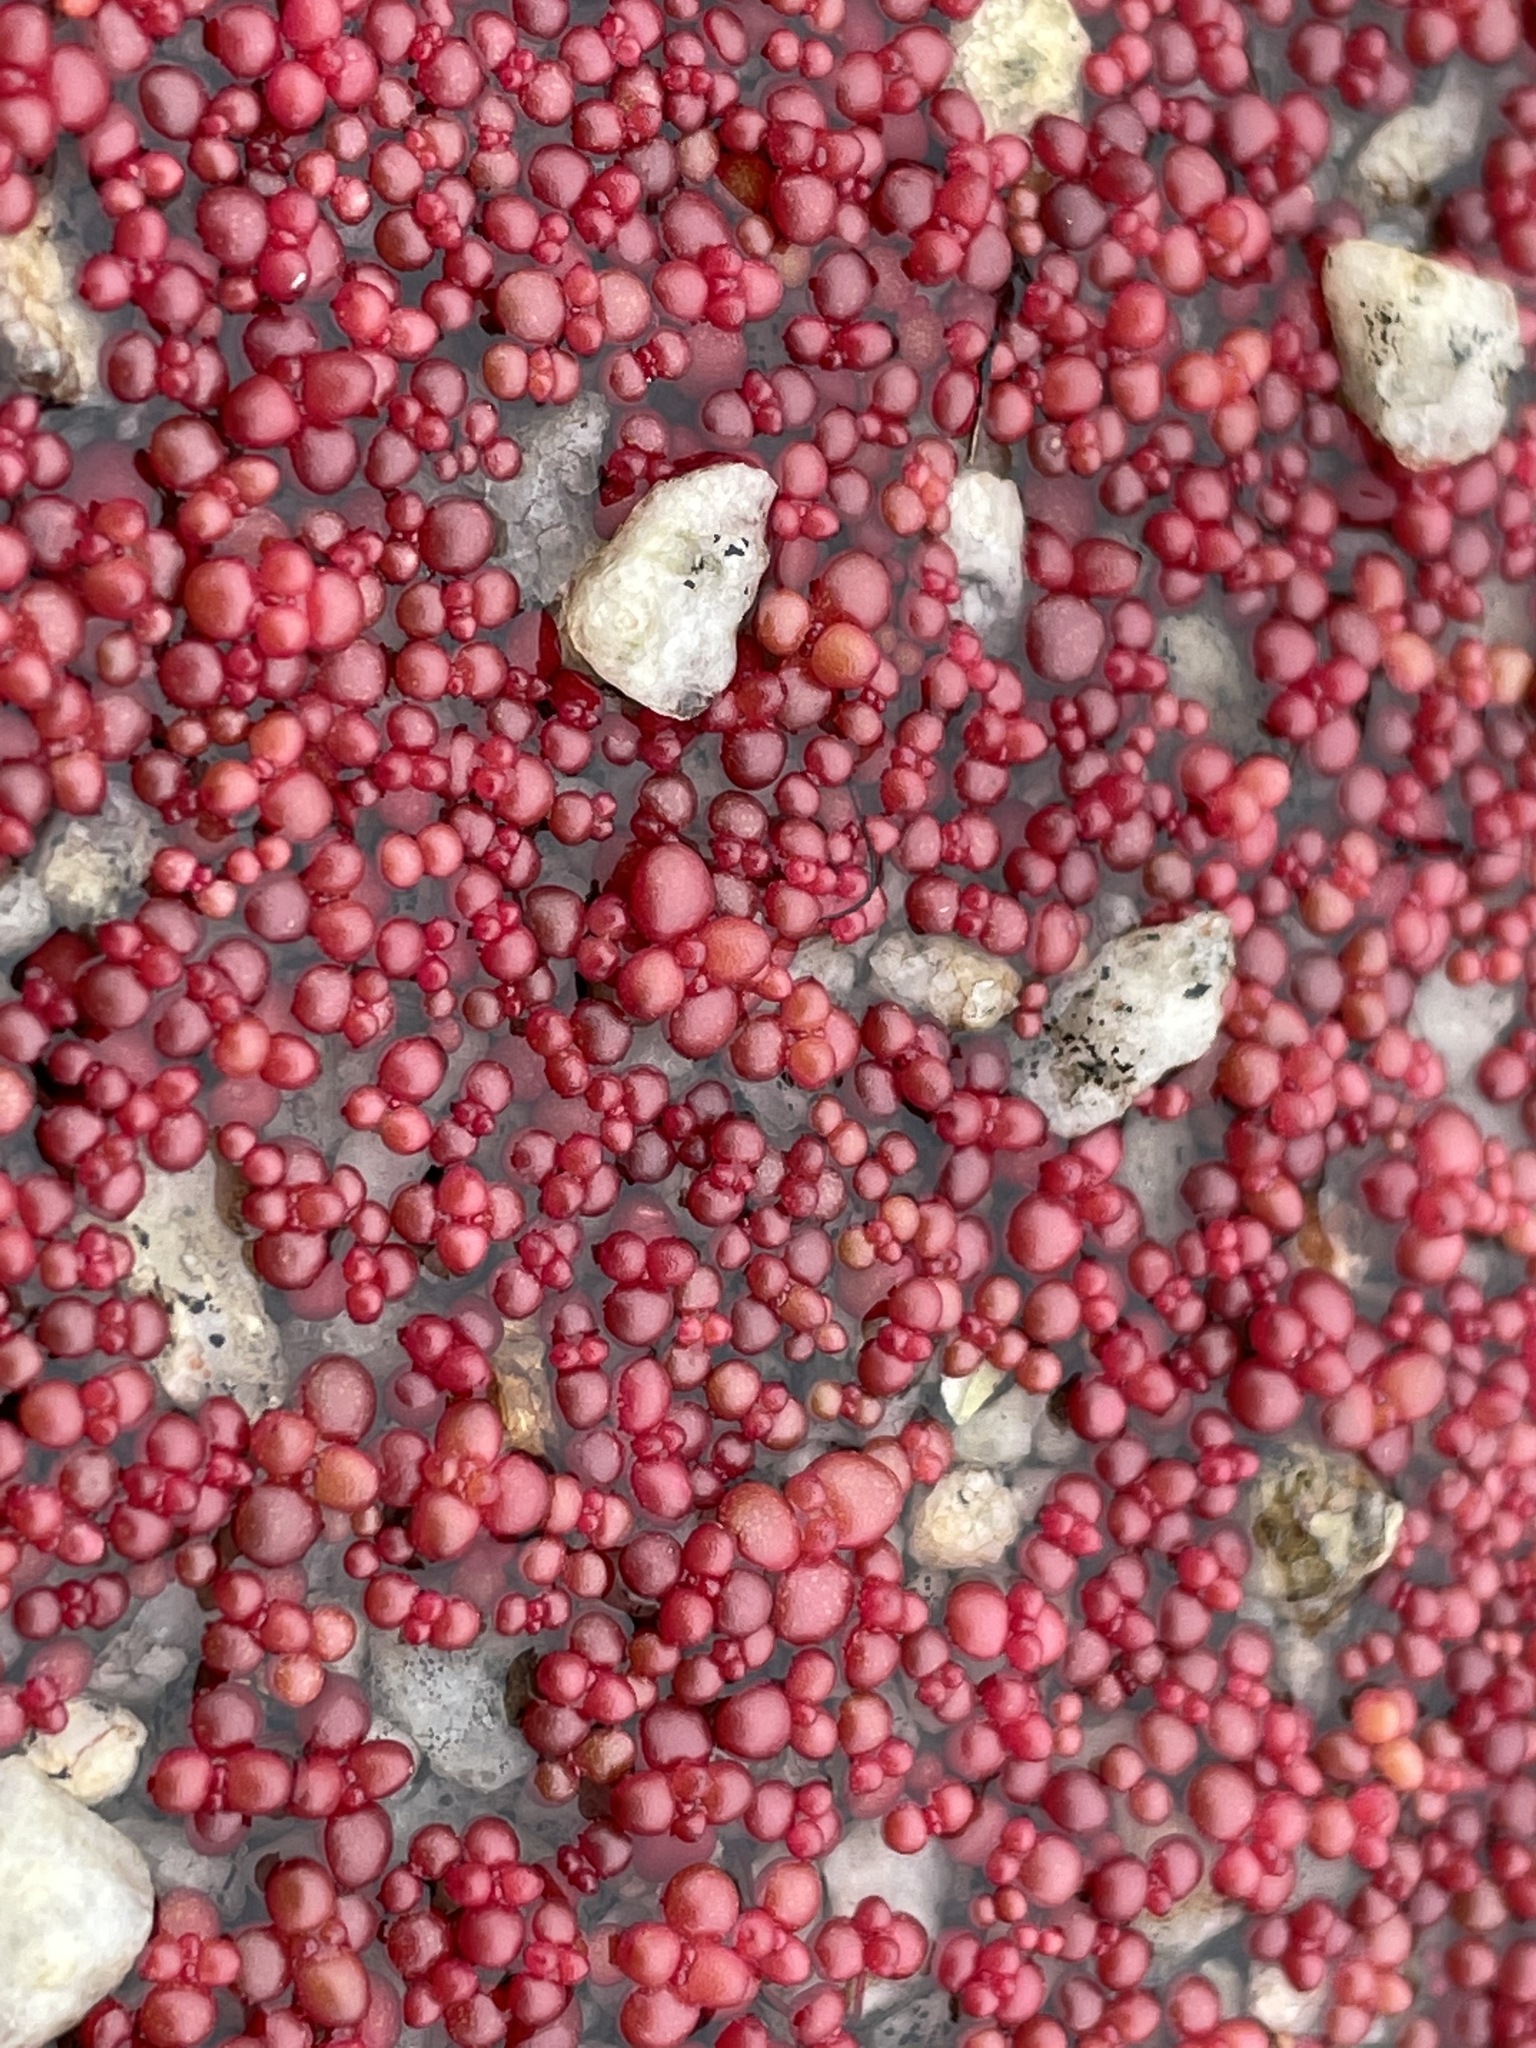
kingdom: Plantae
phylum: Tracheophyta
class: Magnoliopsida
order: Saxifragales
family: Crassulaceae
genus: Sedum
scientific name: Sedum smallii
